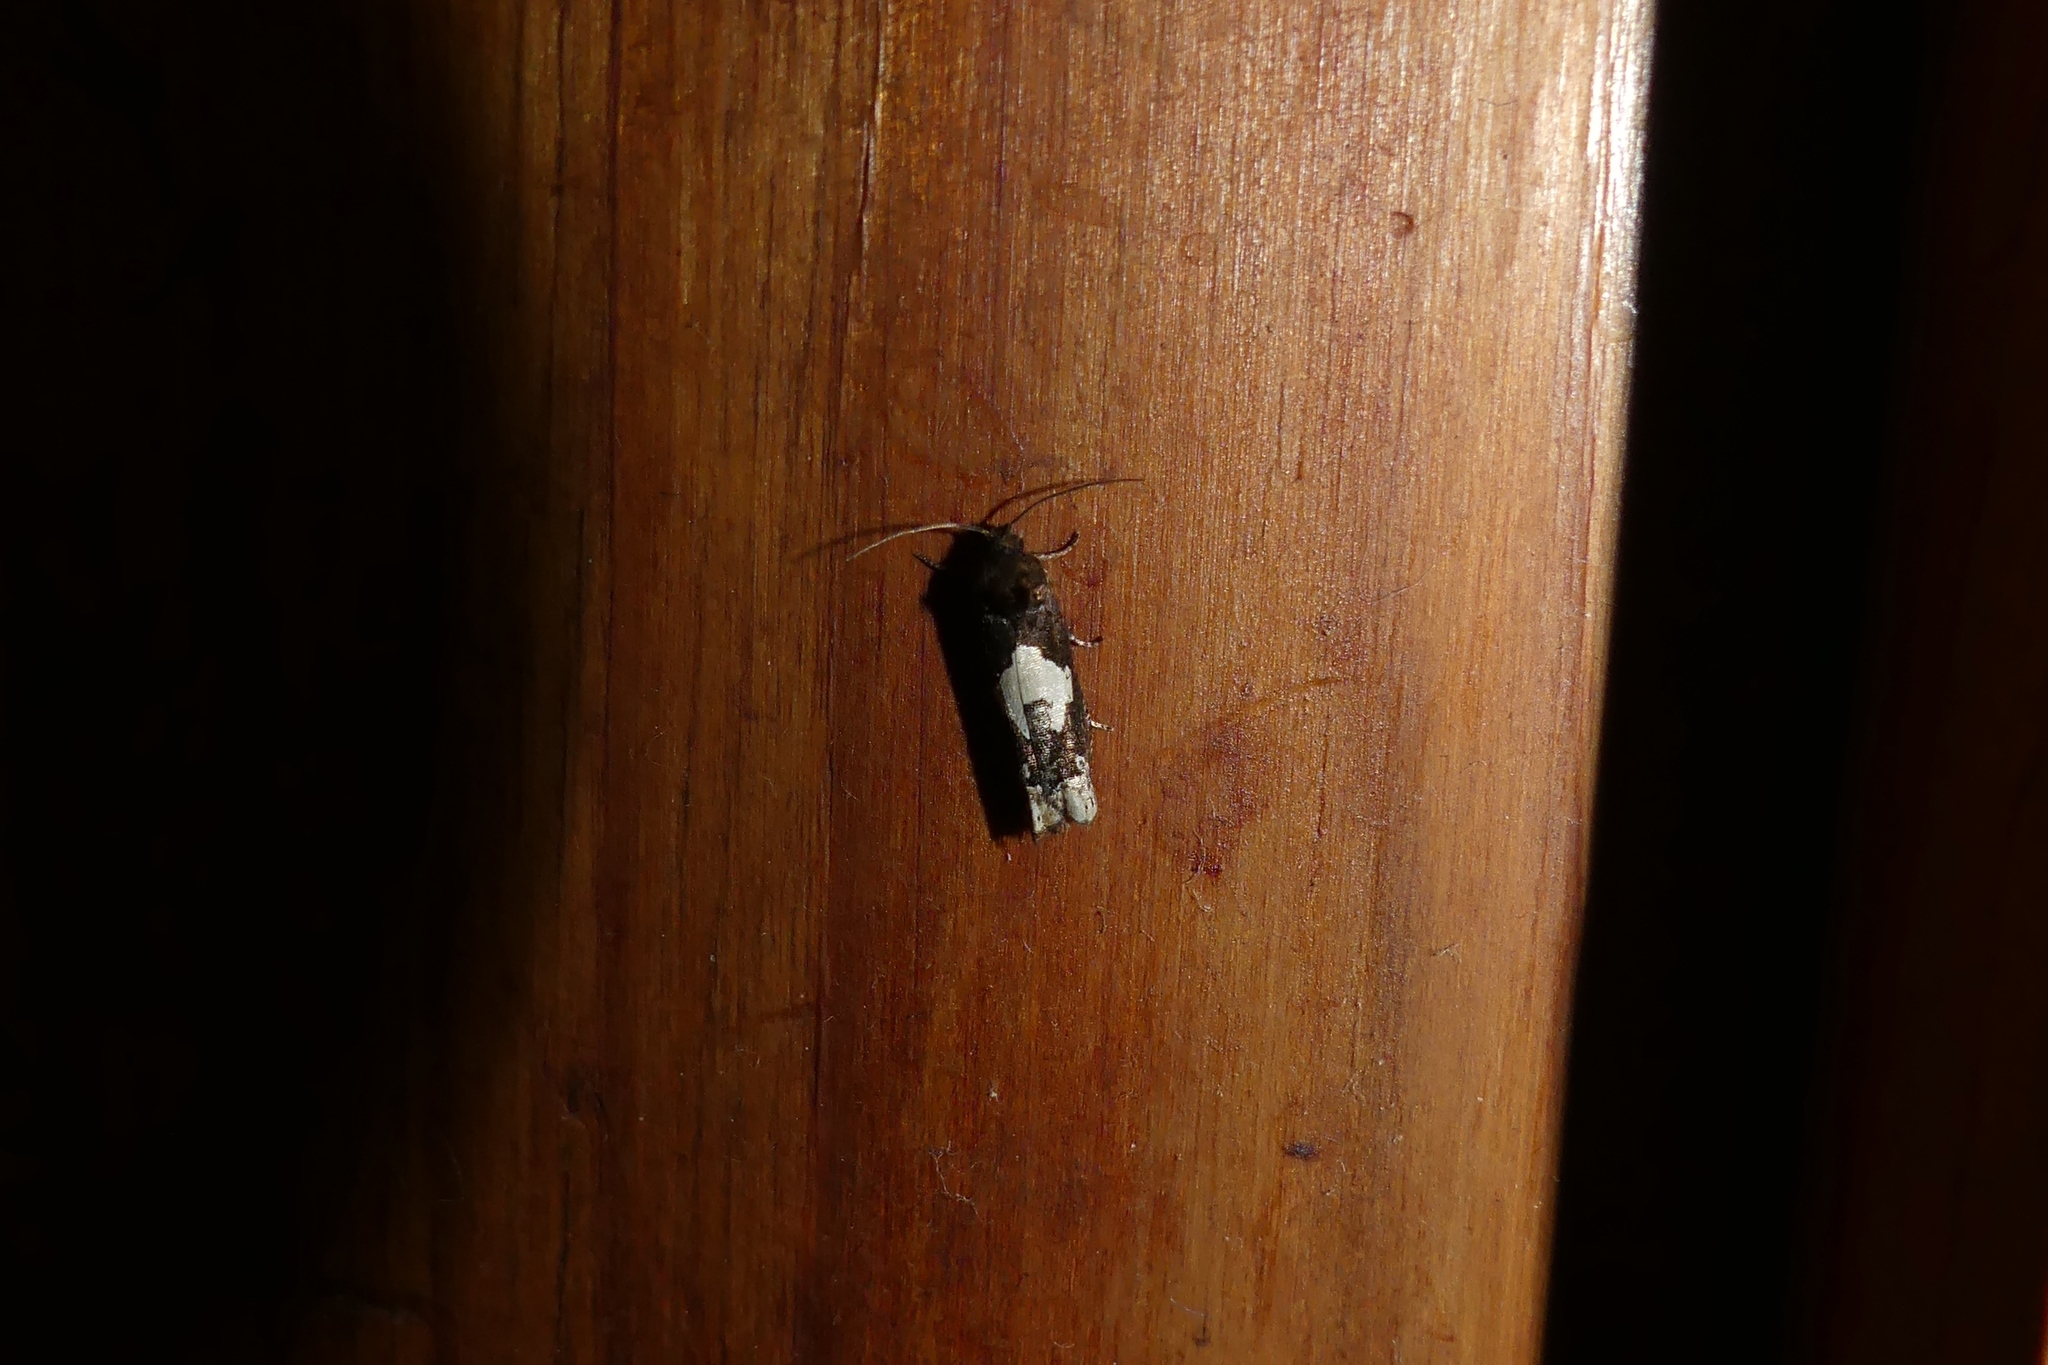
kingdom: Animalia
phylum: Arthropoda
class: Insecta
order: Lepidoptera
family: Tortricidae
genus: Epiblema
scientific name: Epiblema otiosana
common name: Bidens borer moth
